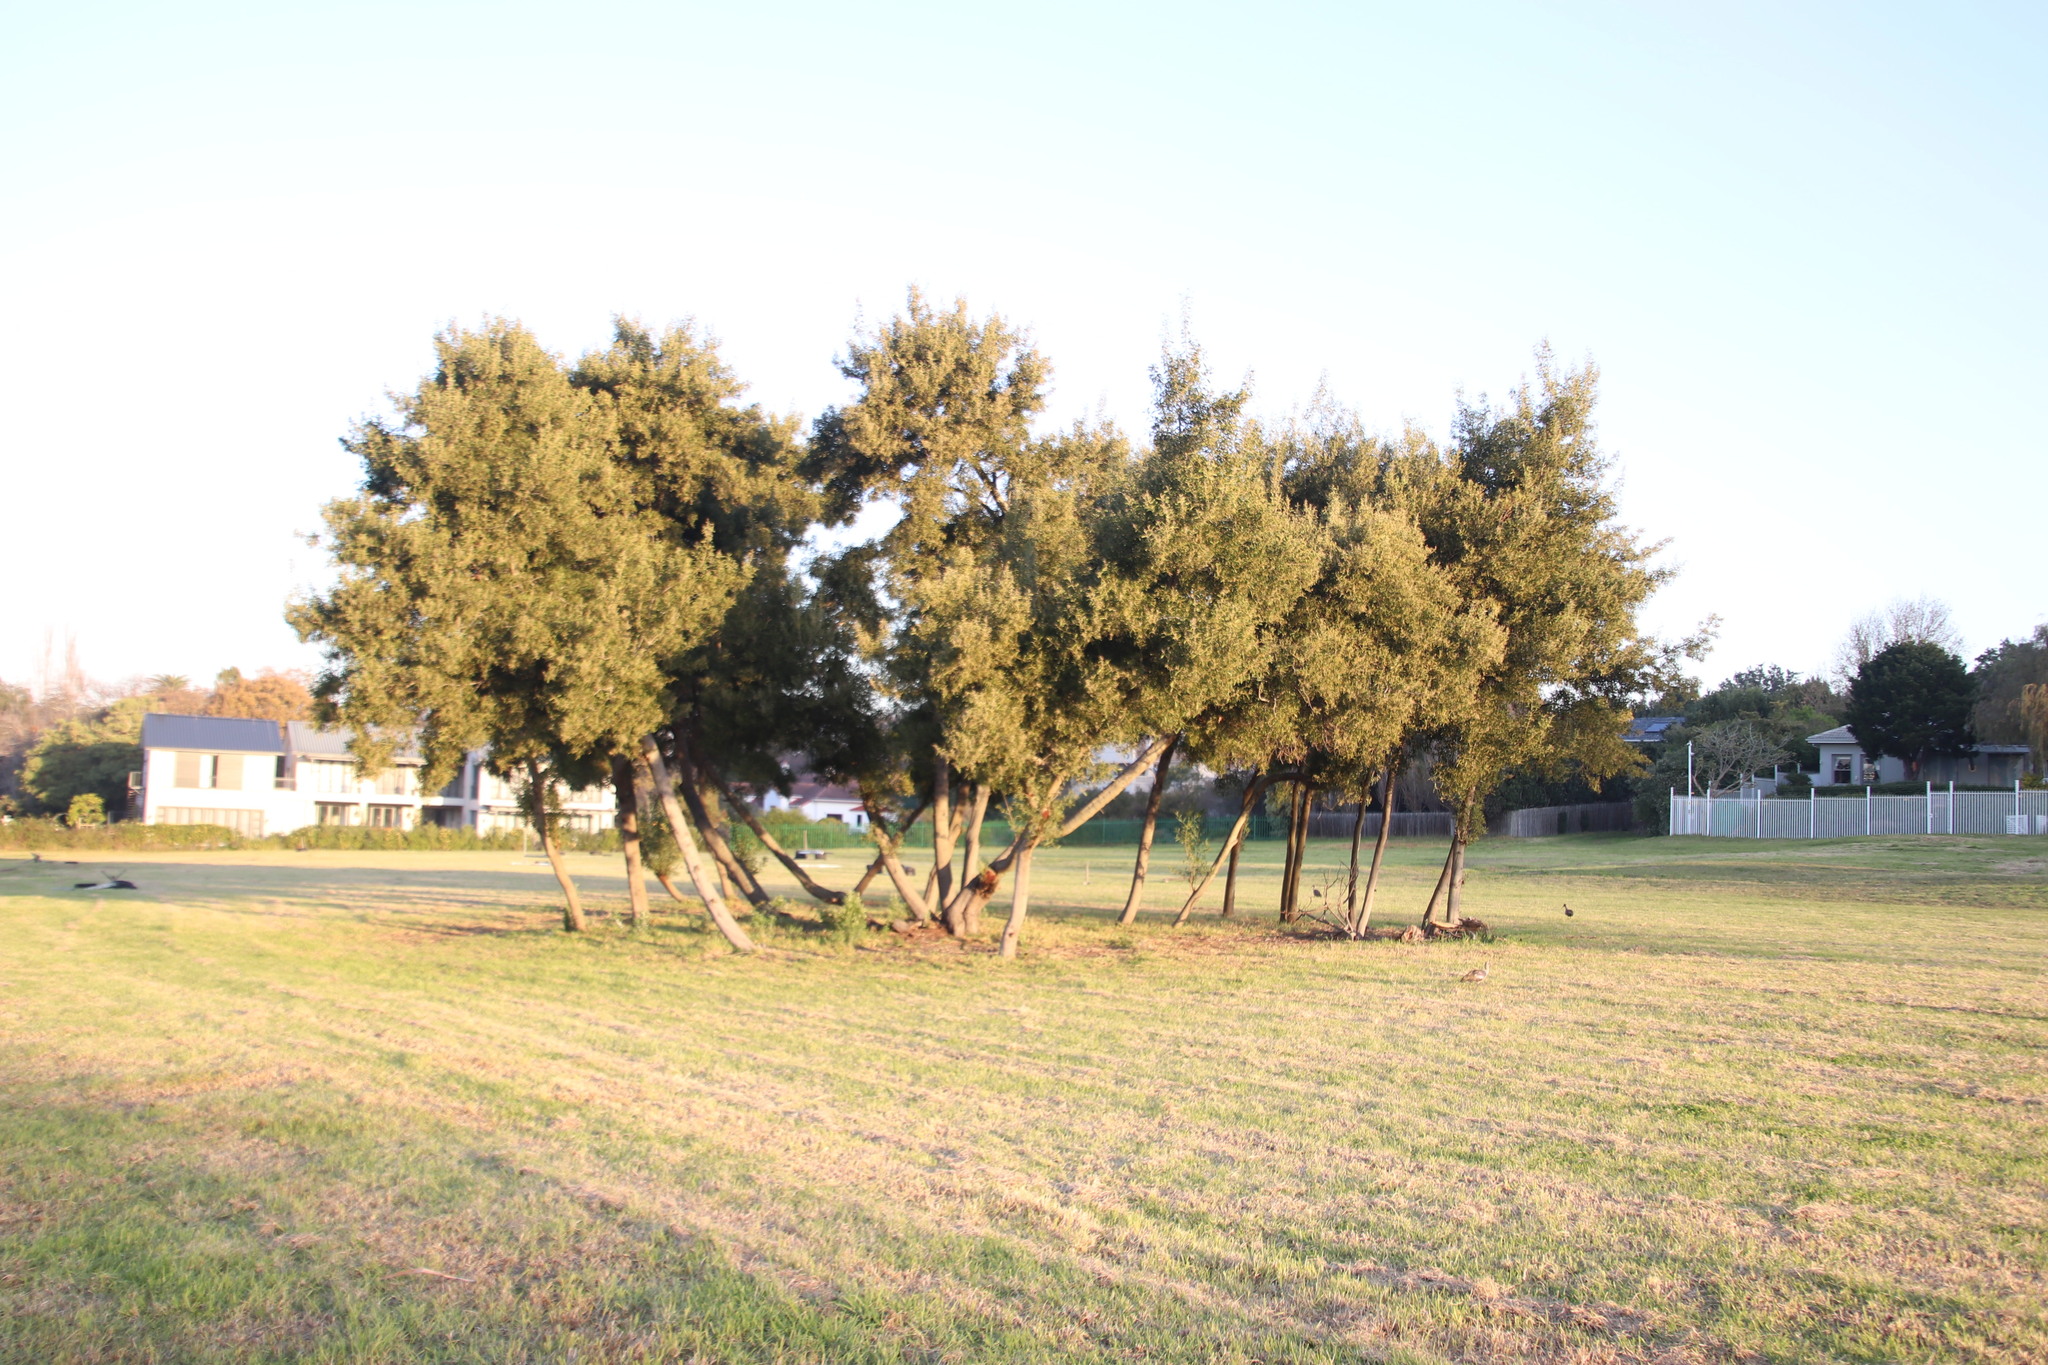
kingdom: Plantae
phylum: Tracheophyta
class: Magnoliopsida
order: Fabales
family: Fabaceae
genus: Acacia
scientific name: Acacia melanoxylon
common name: Blackwood
